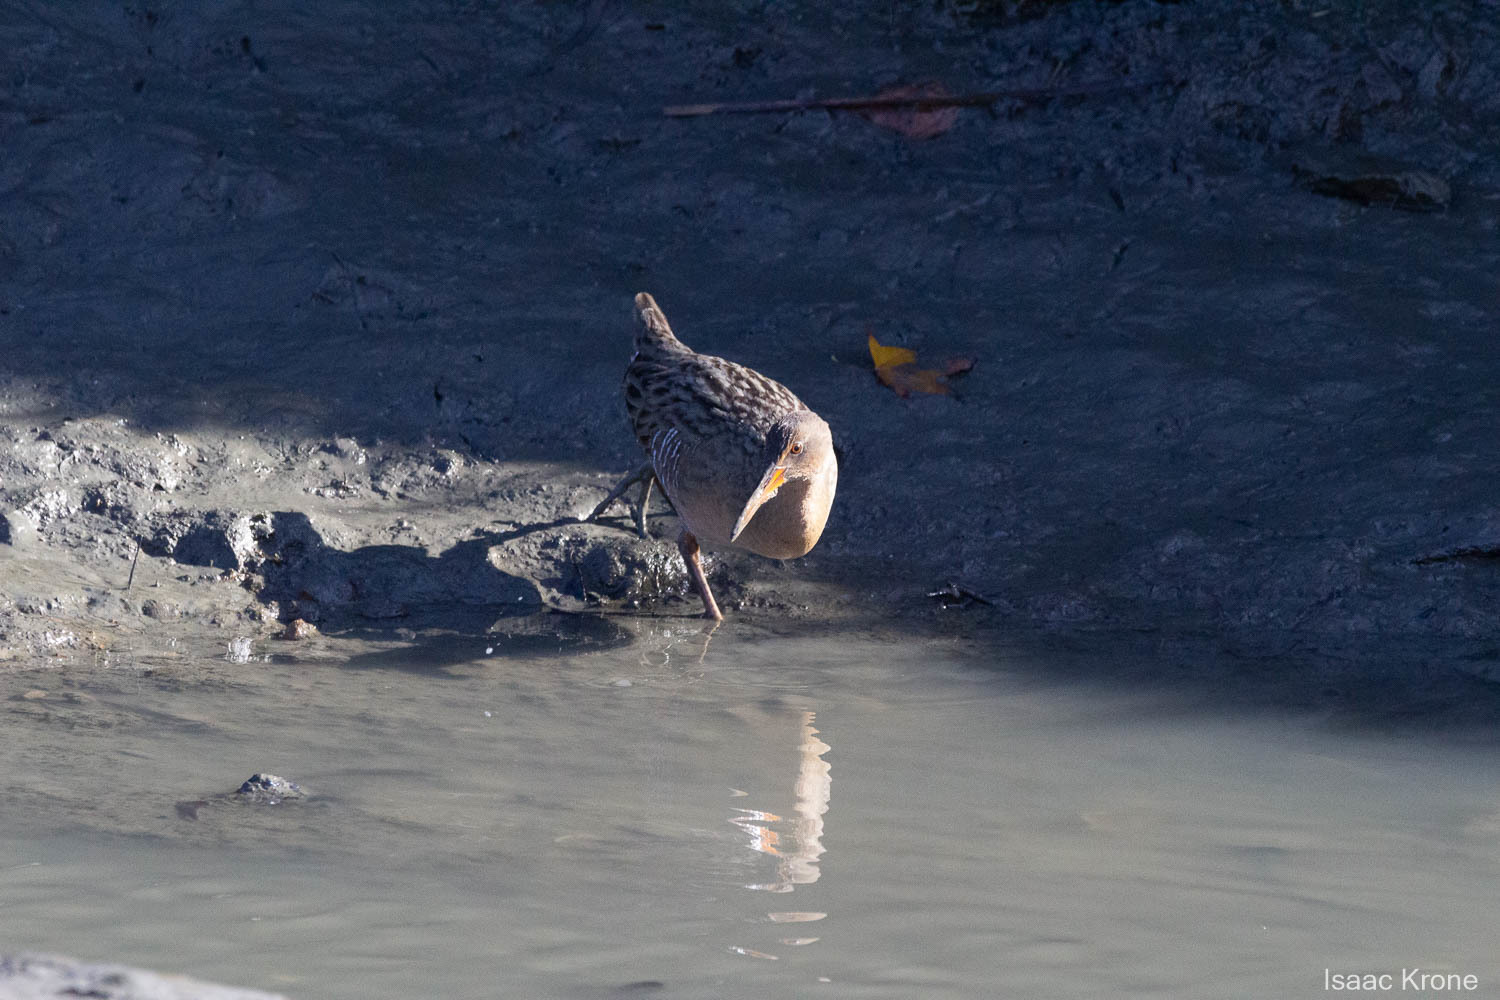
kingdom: Animalia
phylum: Chordata
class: Aves
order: Gruiformes
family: Rallidae
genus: Rallus
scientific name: Rallus obsoletus
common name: Ridgway's rail
